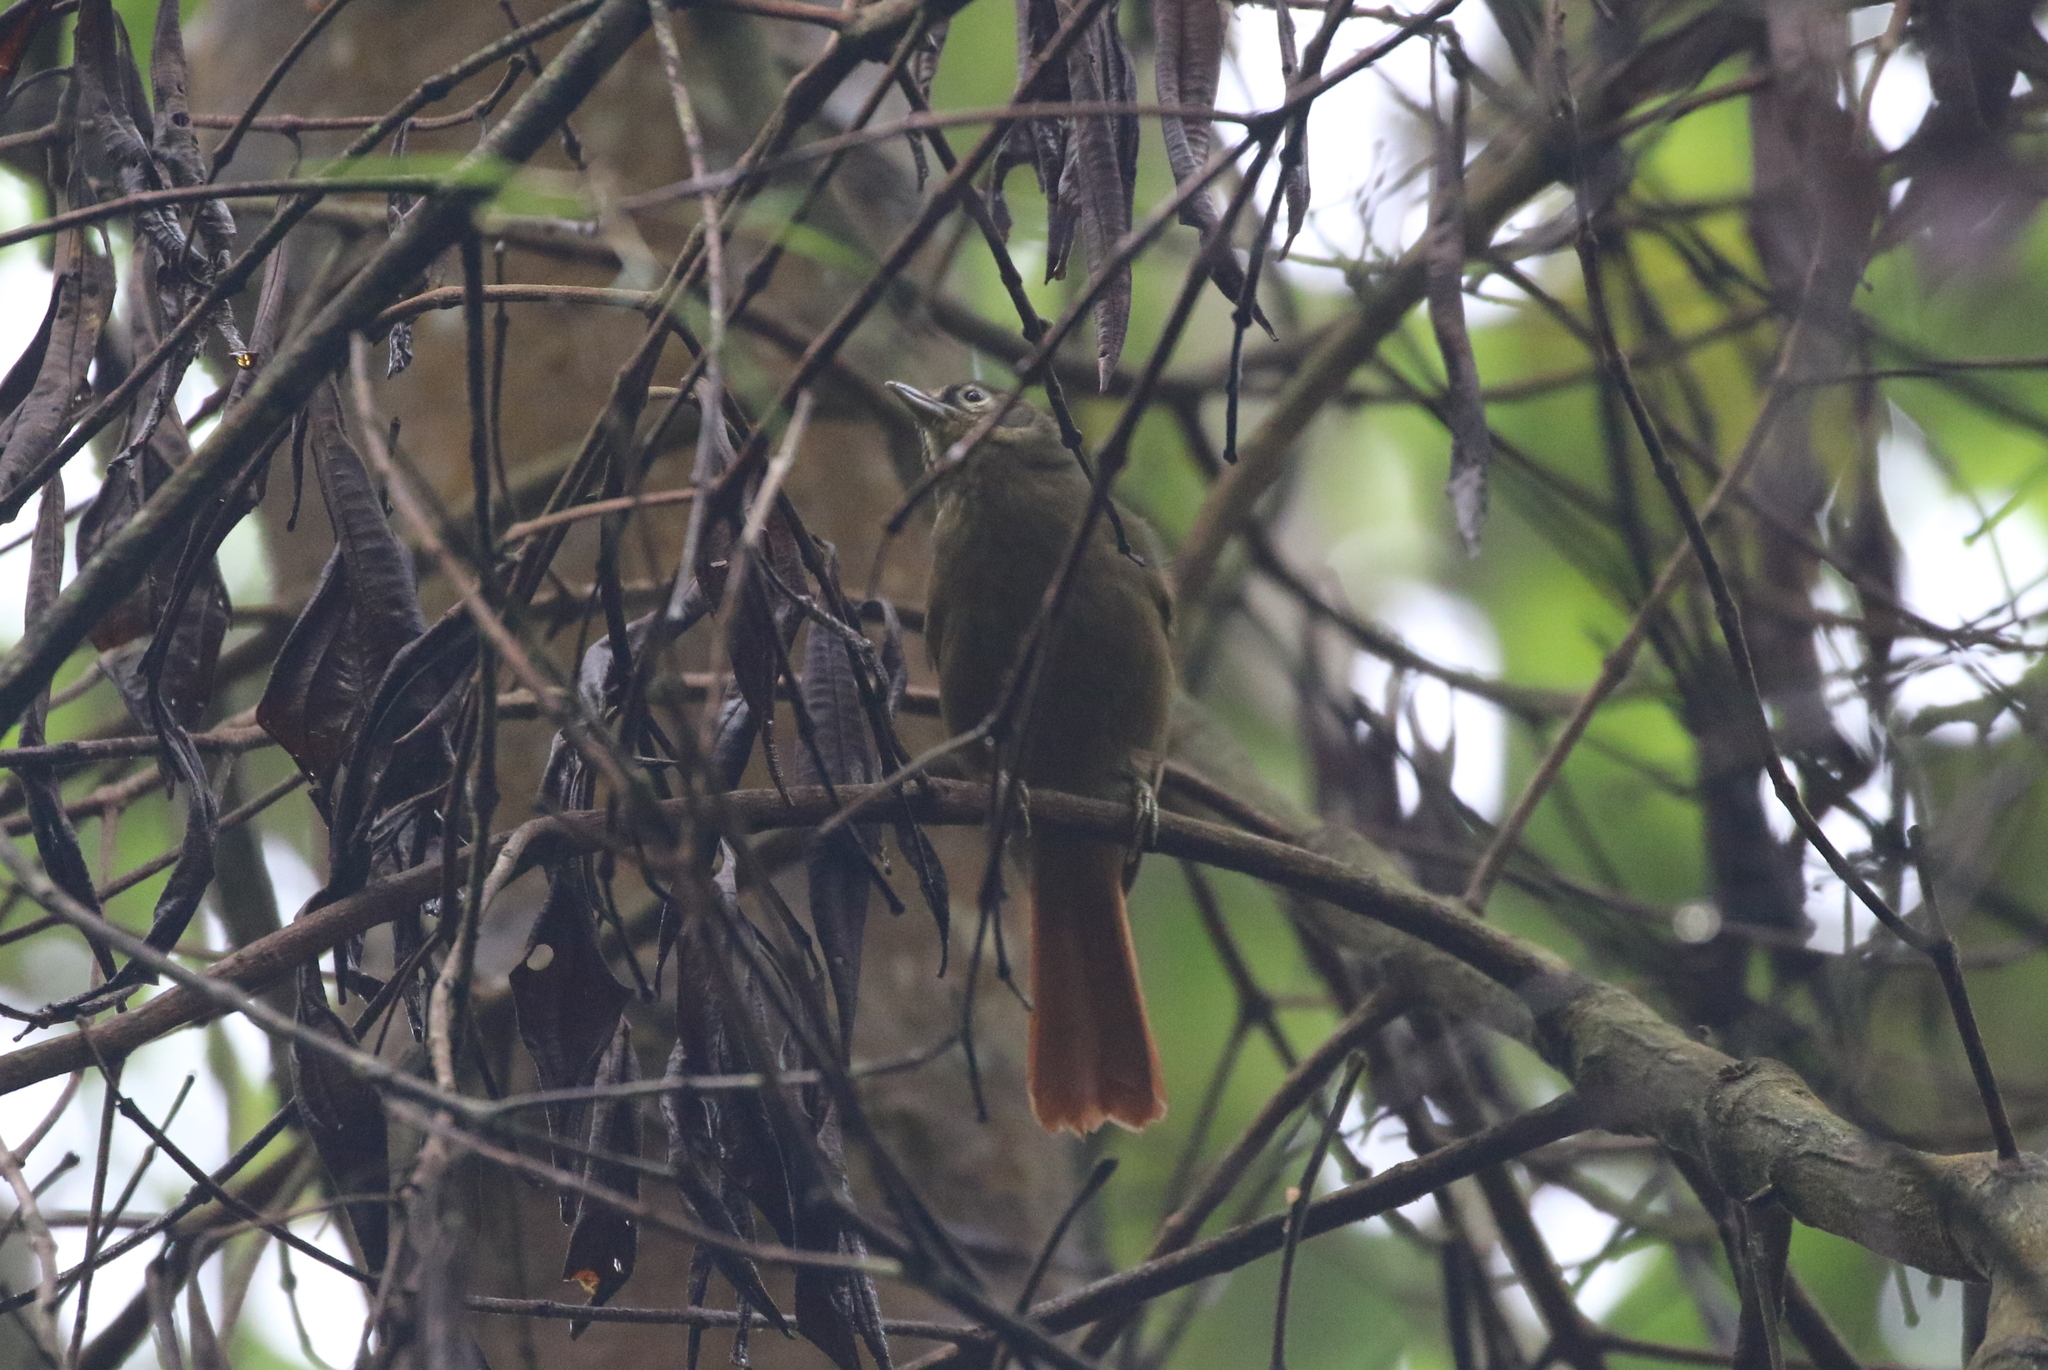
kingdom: Animalia
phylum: Chordata
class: Aves
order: Passeriformes
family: Furnariidae
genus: Anabacerthia
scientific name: Anabacerthia striaticollis
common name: Montane foliage-gleaner
